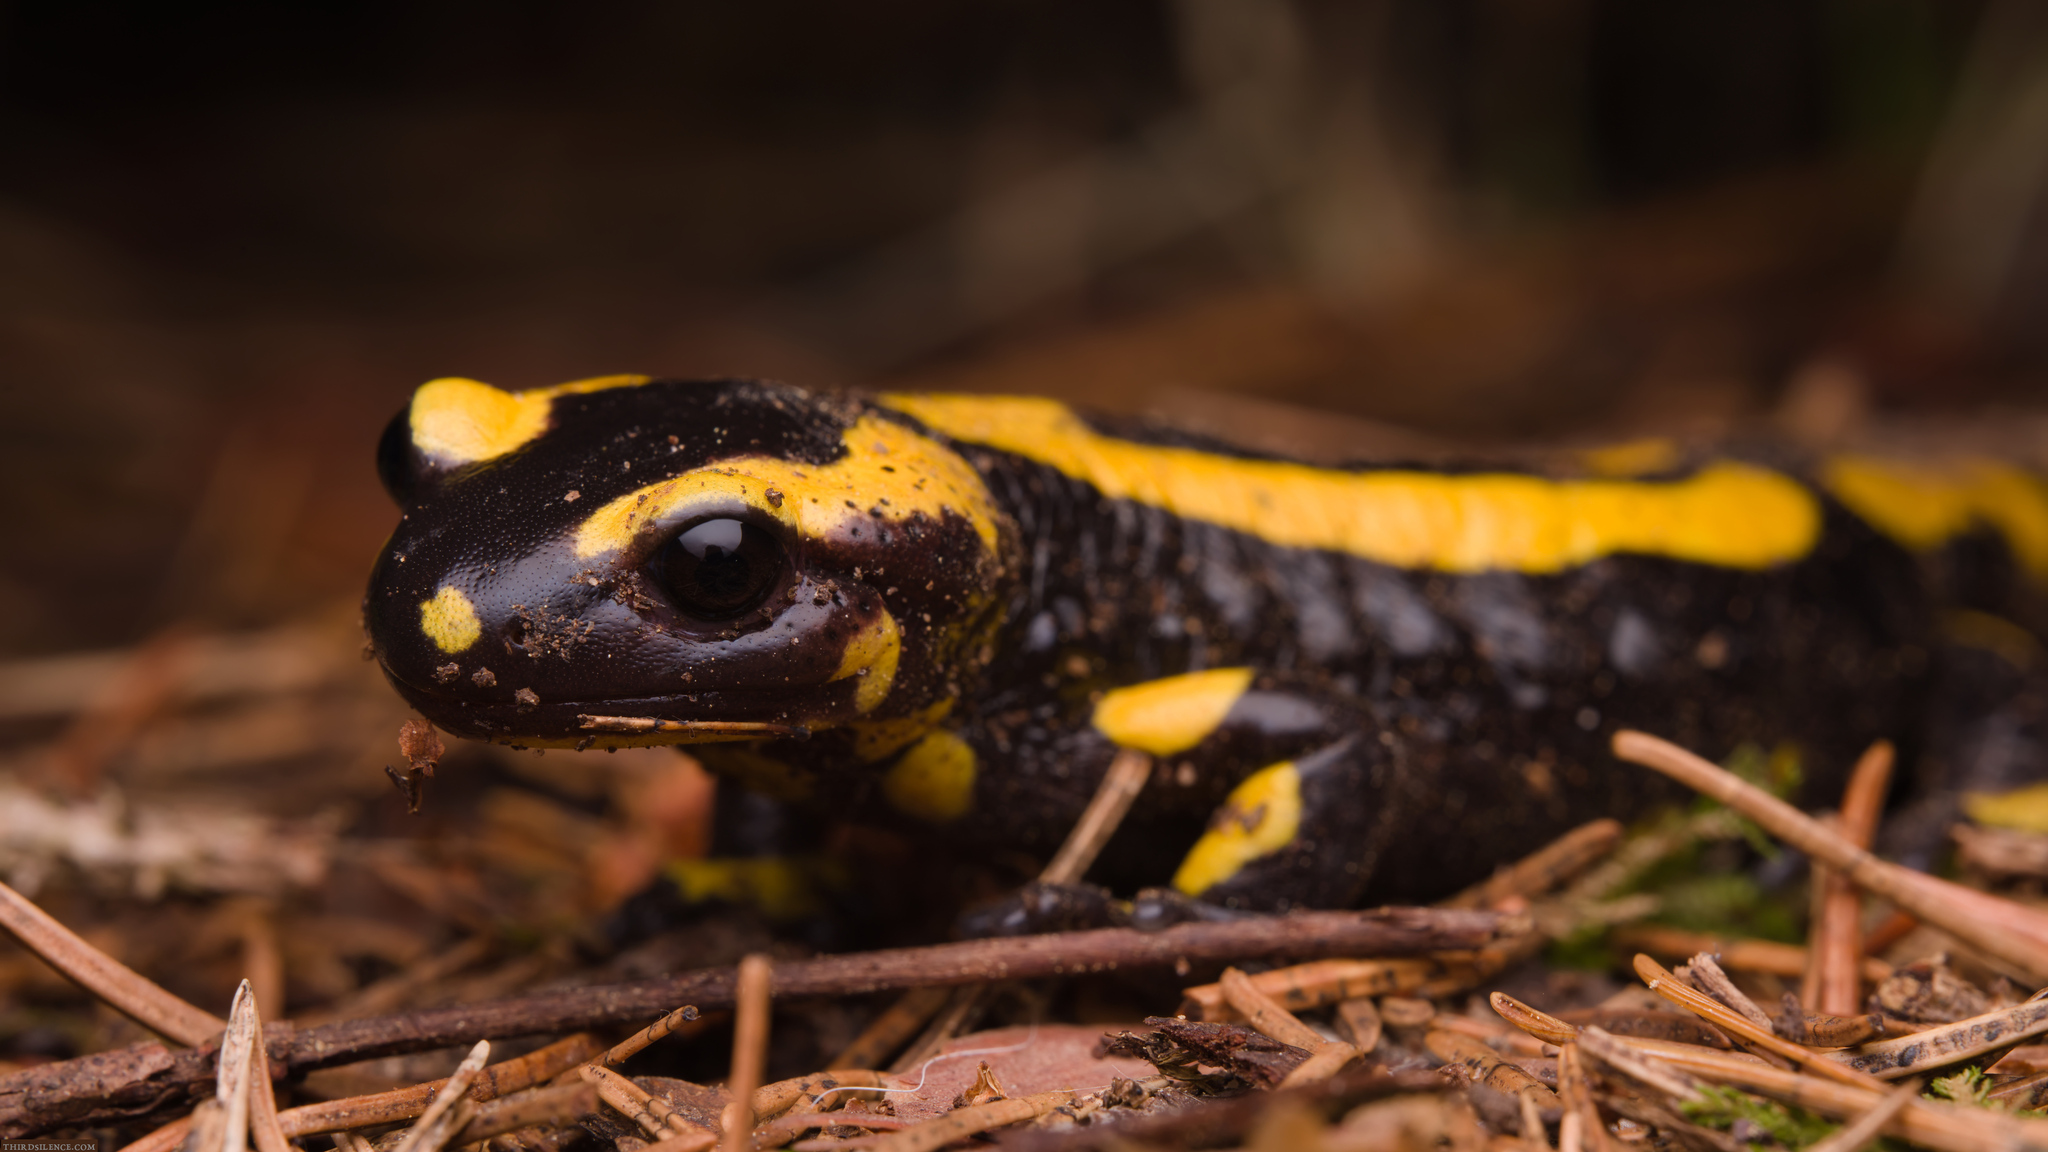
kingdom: Animalia
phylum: Chordata
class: Amphibia
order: Caudata
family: Salamandridae
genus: Salamandra
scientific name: Salamandra salamandra
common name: Fire salamander
